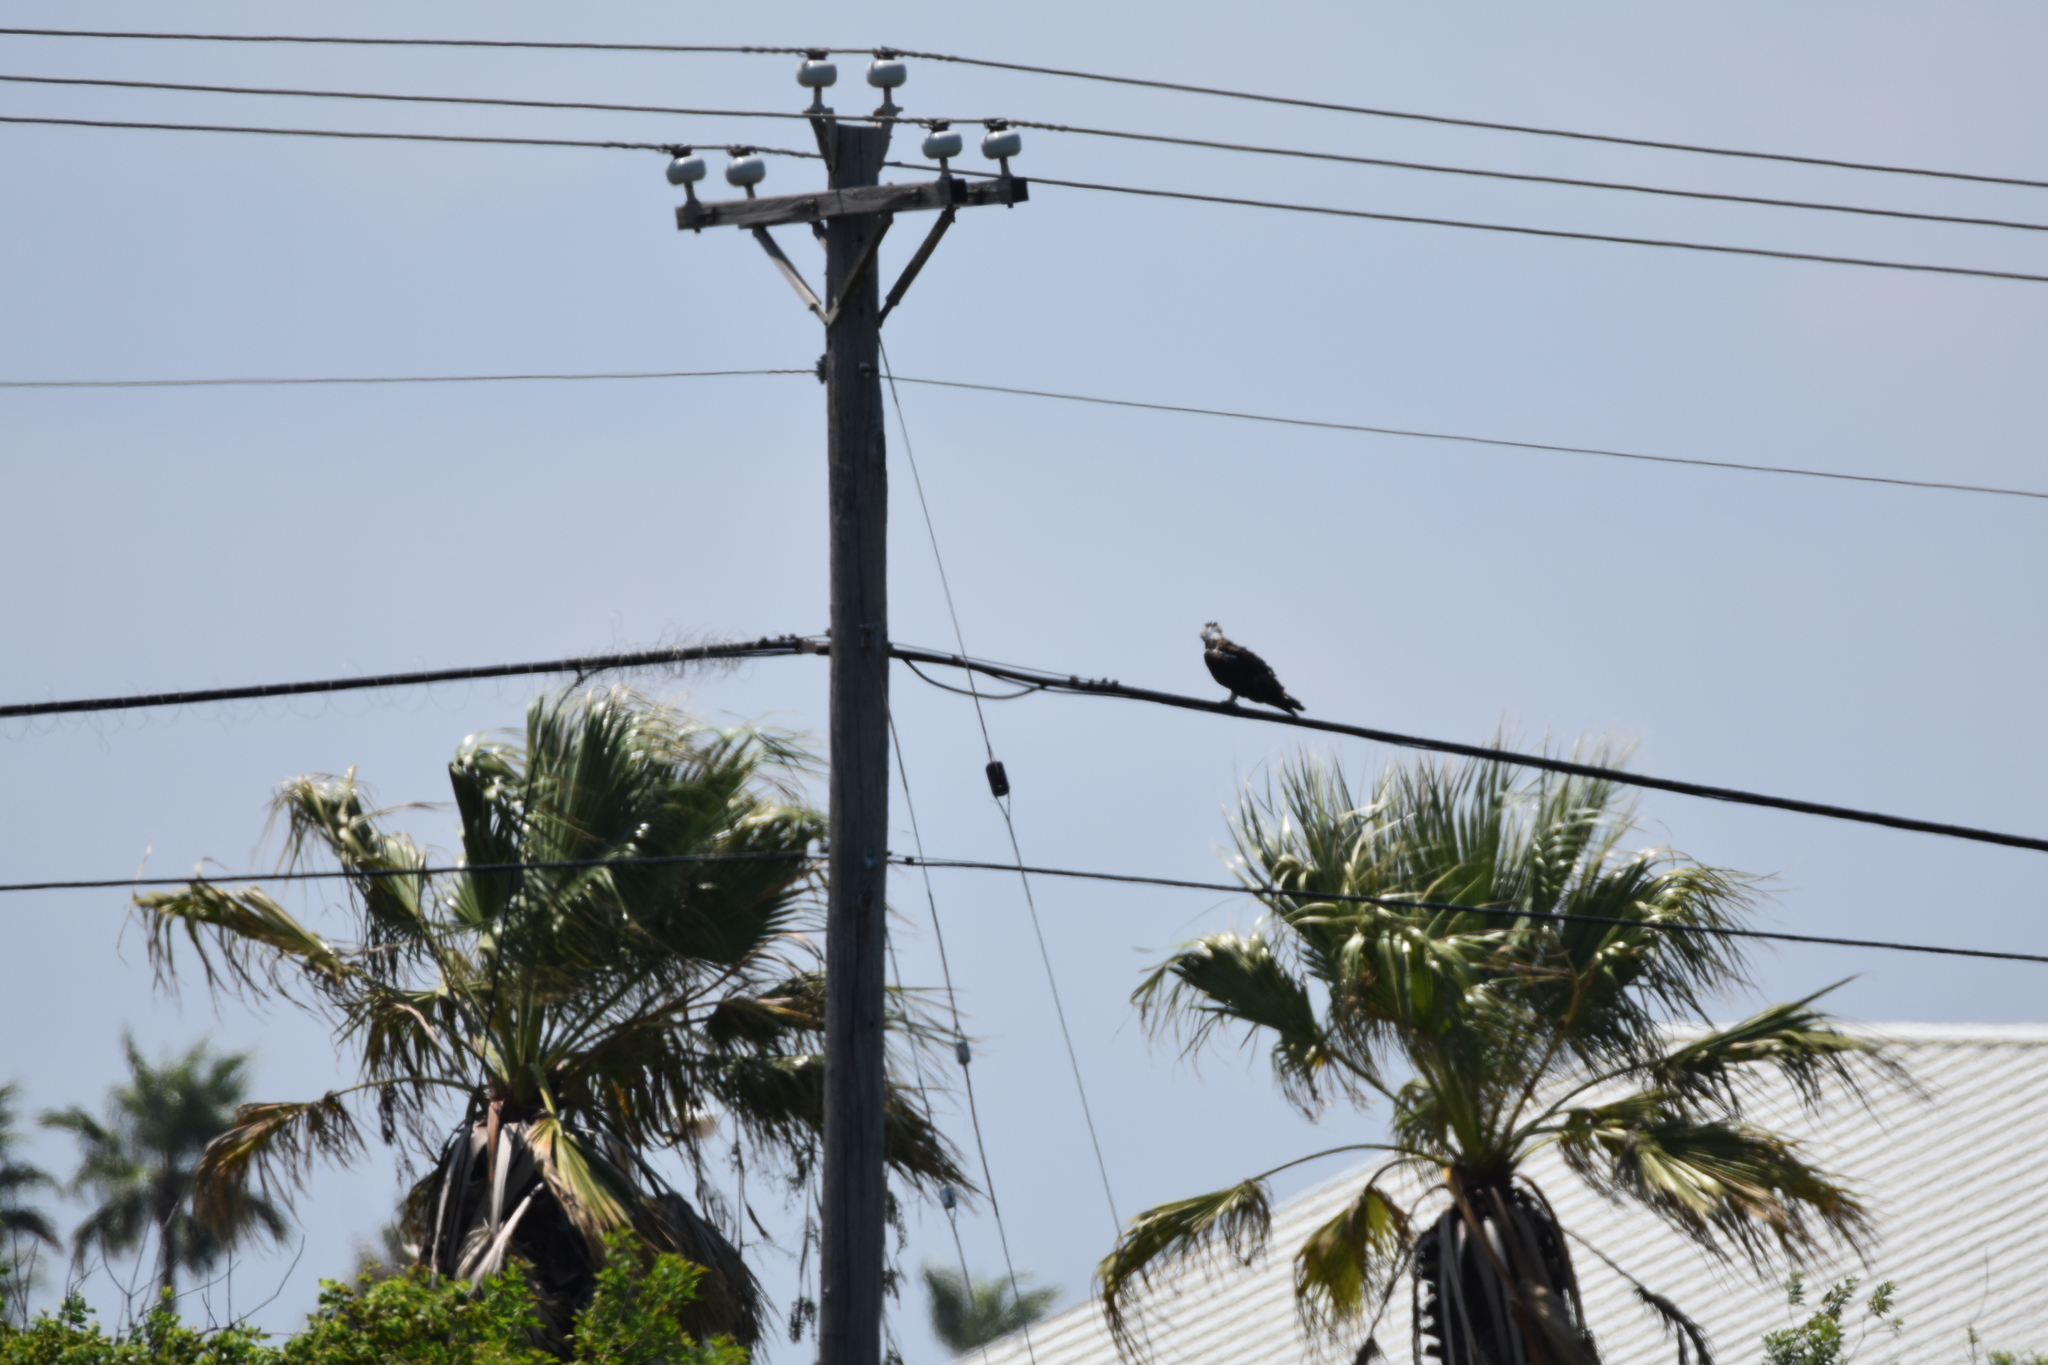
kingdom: Animalia
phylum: Chordata
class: Aves
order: Accipitriformes
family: Pandionidae
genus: Pandion
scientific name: Pandion haliaetus
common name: Osprey
